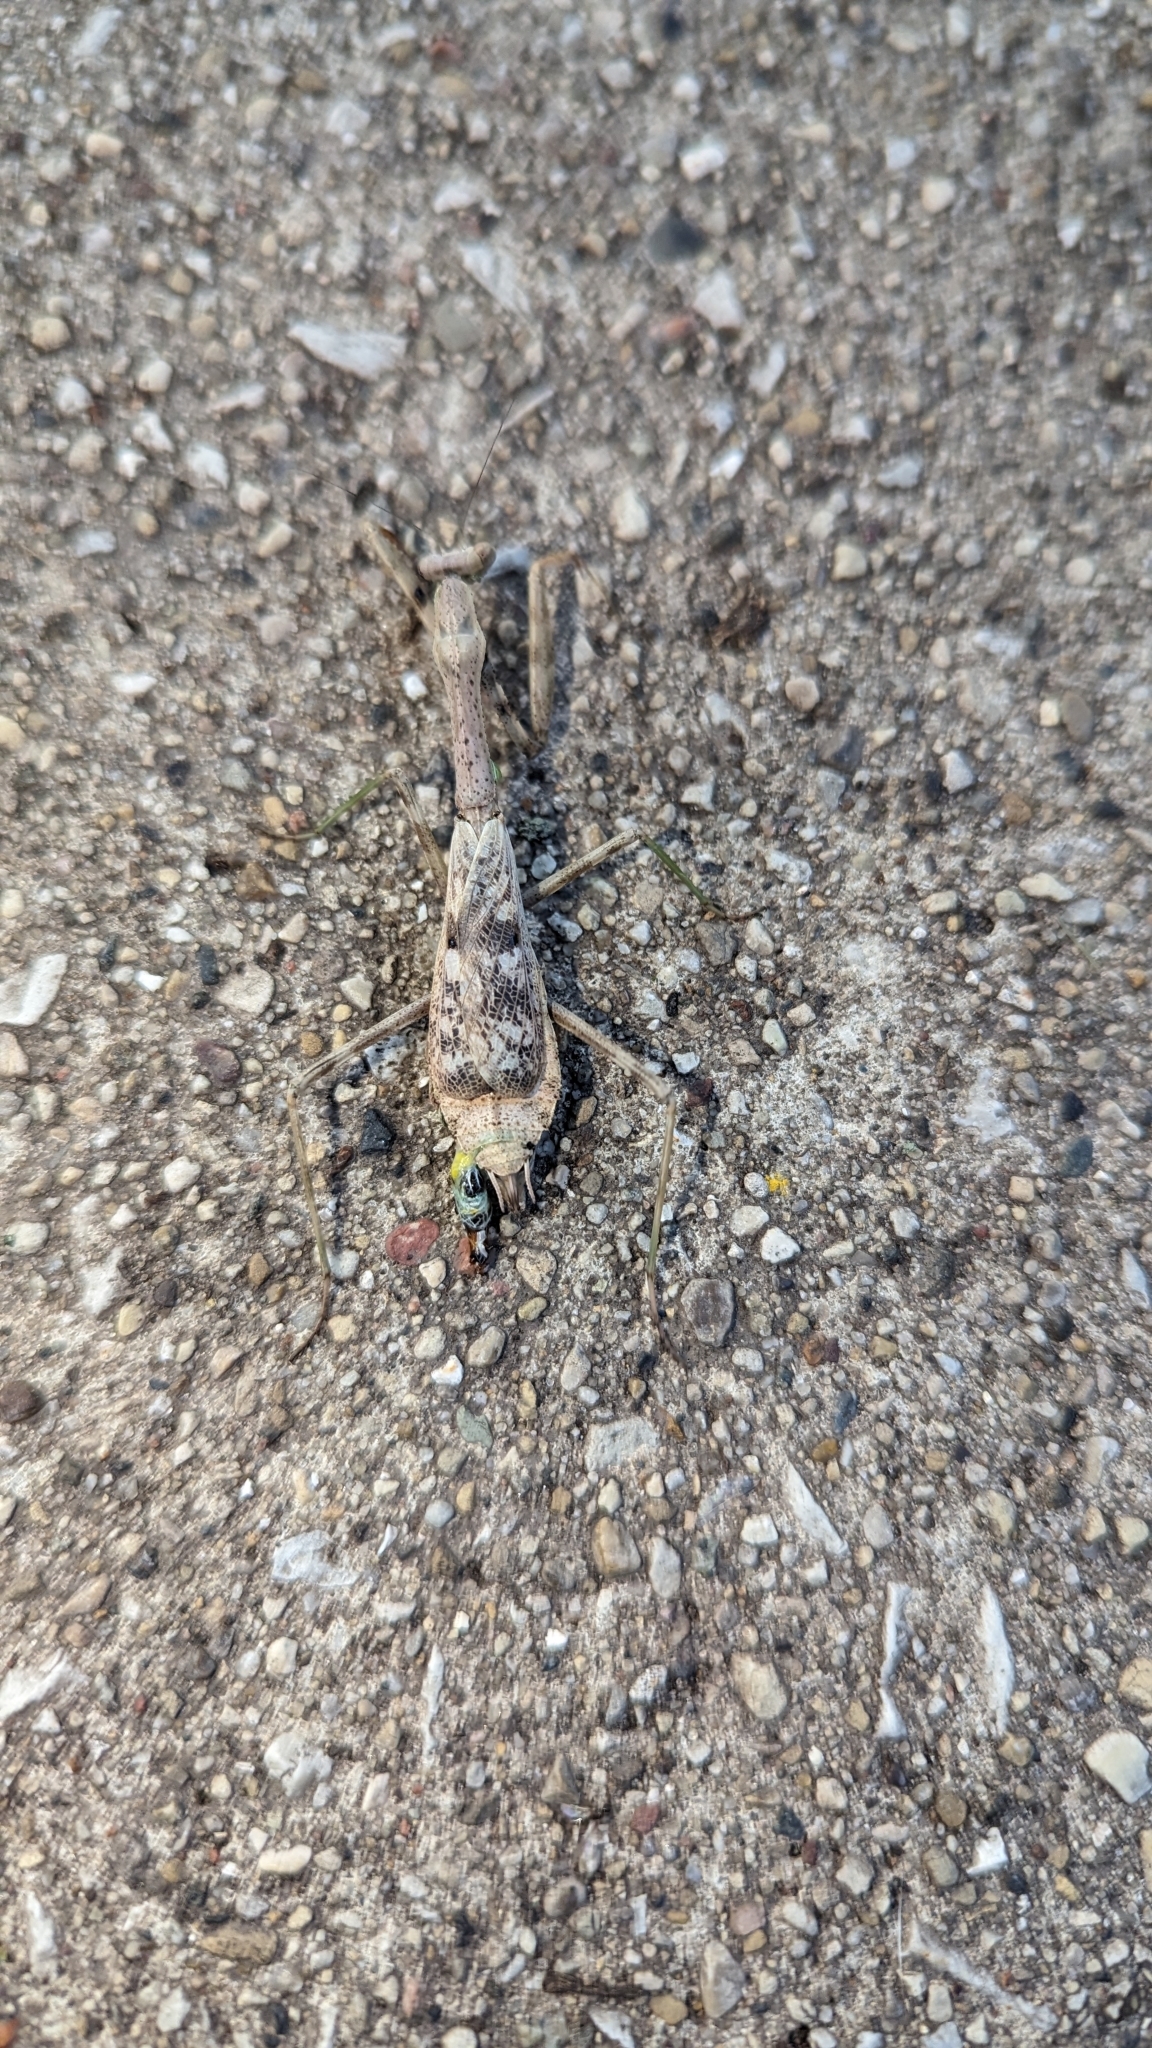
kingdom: Animalia
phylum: Arthropoda
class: Insecta
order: Mantodea
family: Mantidae
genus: Stagmomantis
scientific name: Stagmomantis carolina
